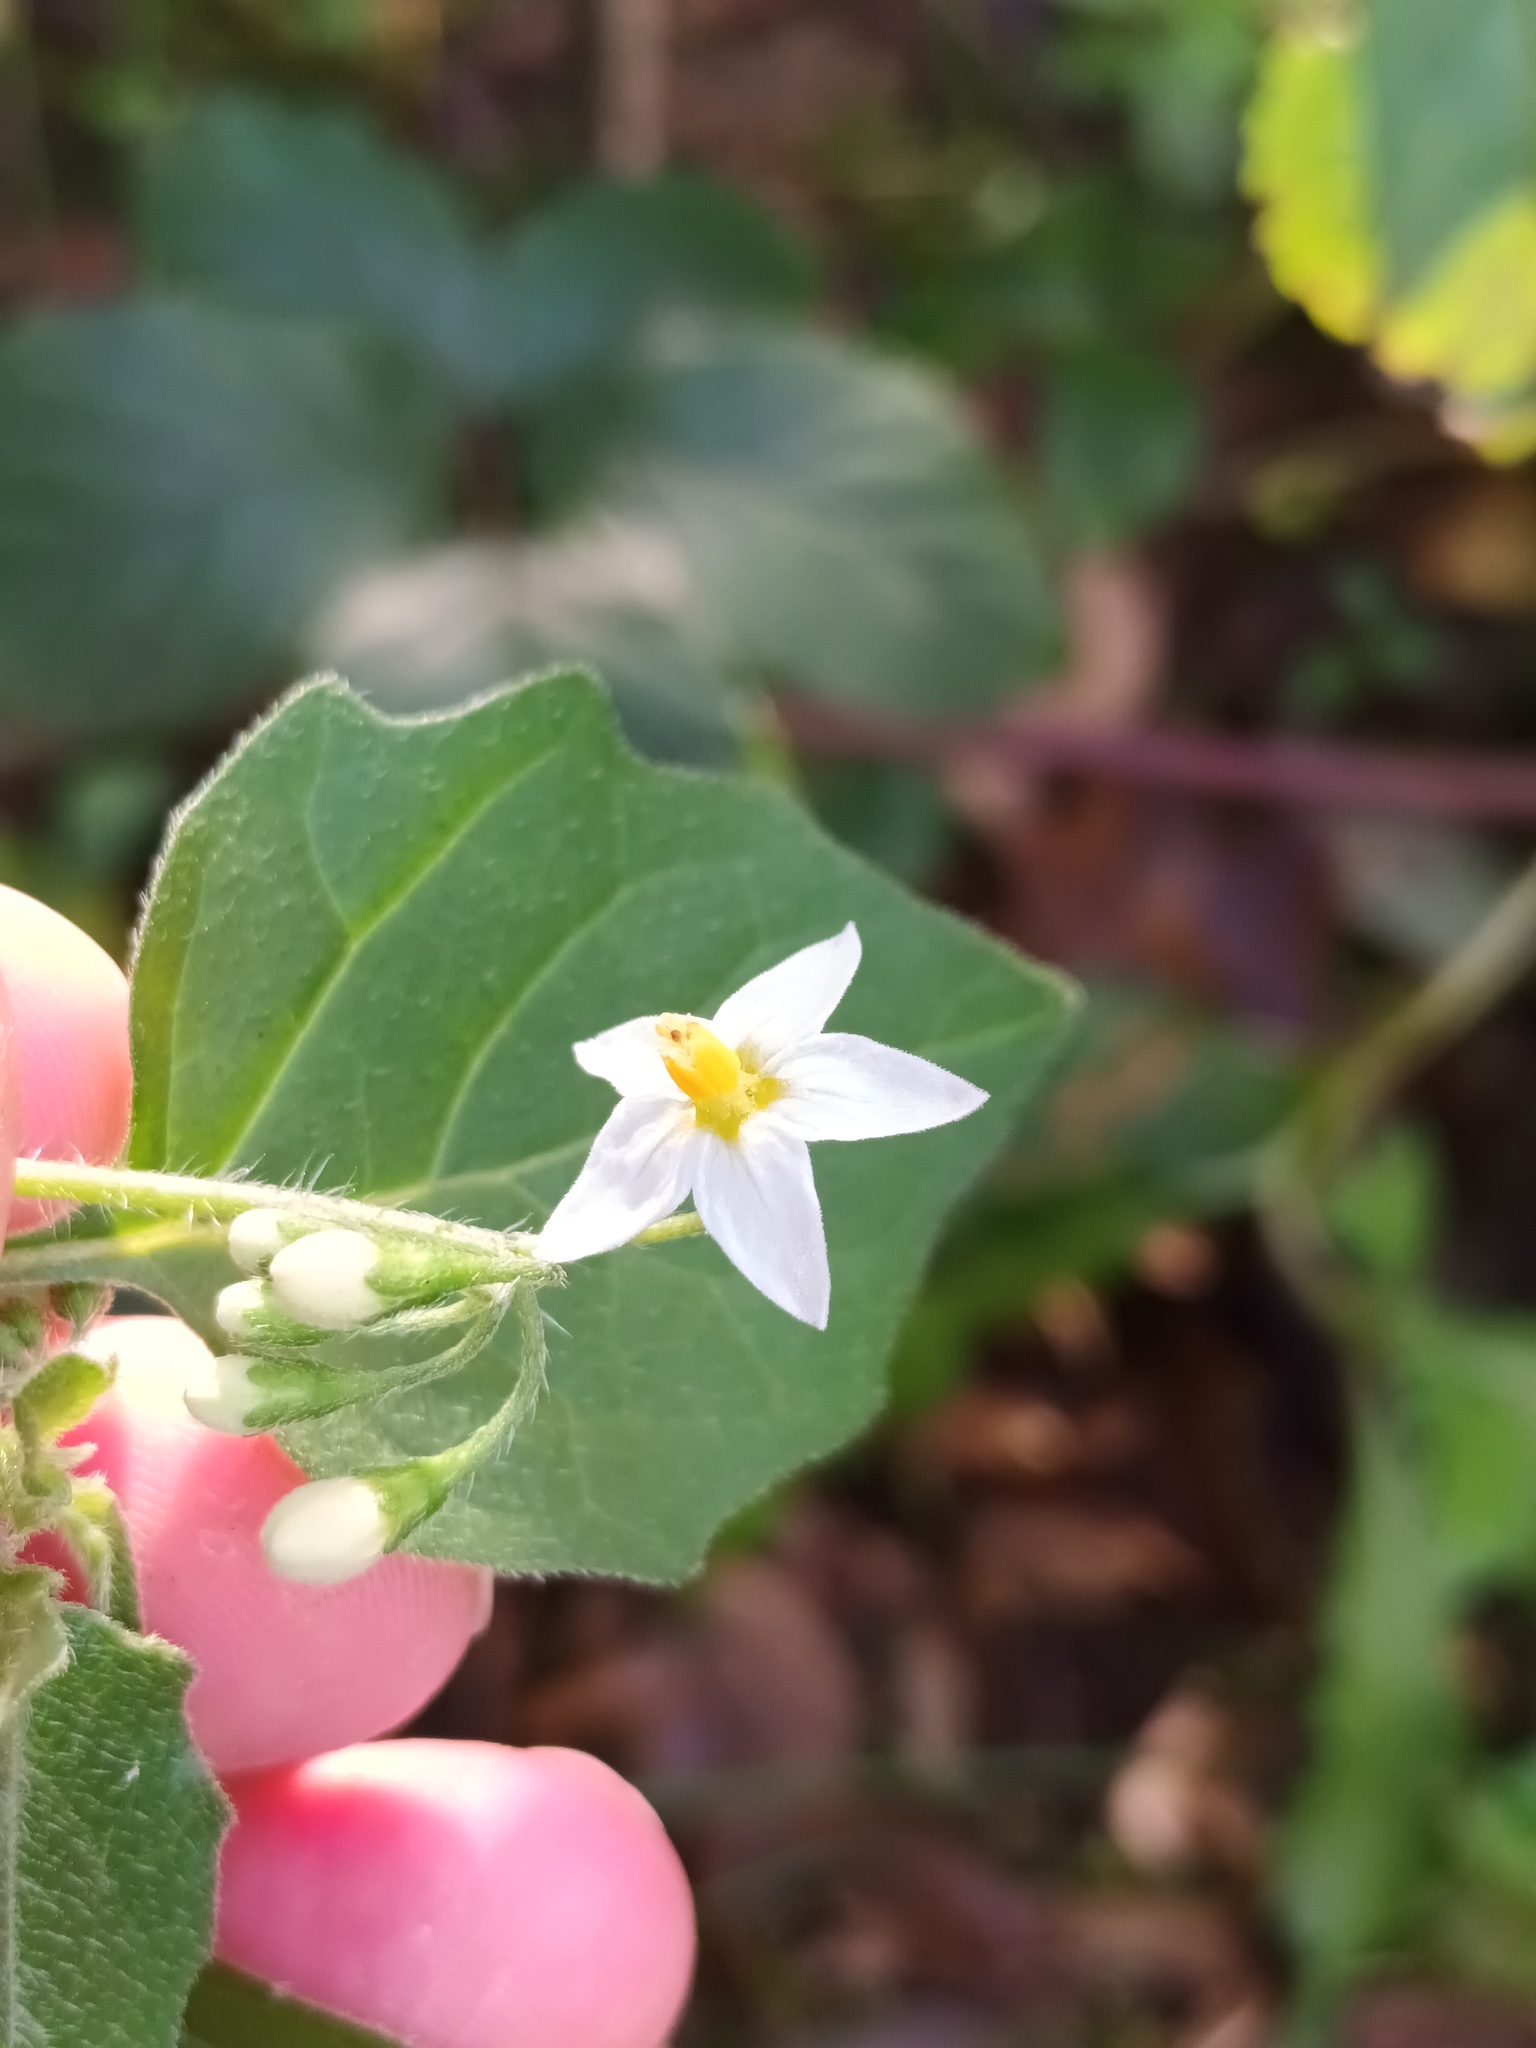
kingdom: Plantae
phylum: Tracheophyta
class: Magnoliopsida
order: Solanales
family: Solanaceae
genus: Solanum
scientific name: Solanum nigrum
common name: Black nightshade
